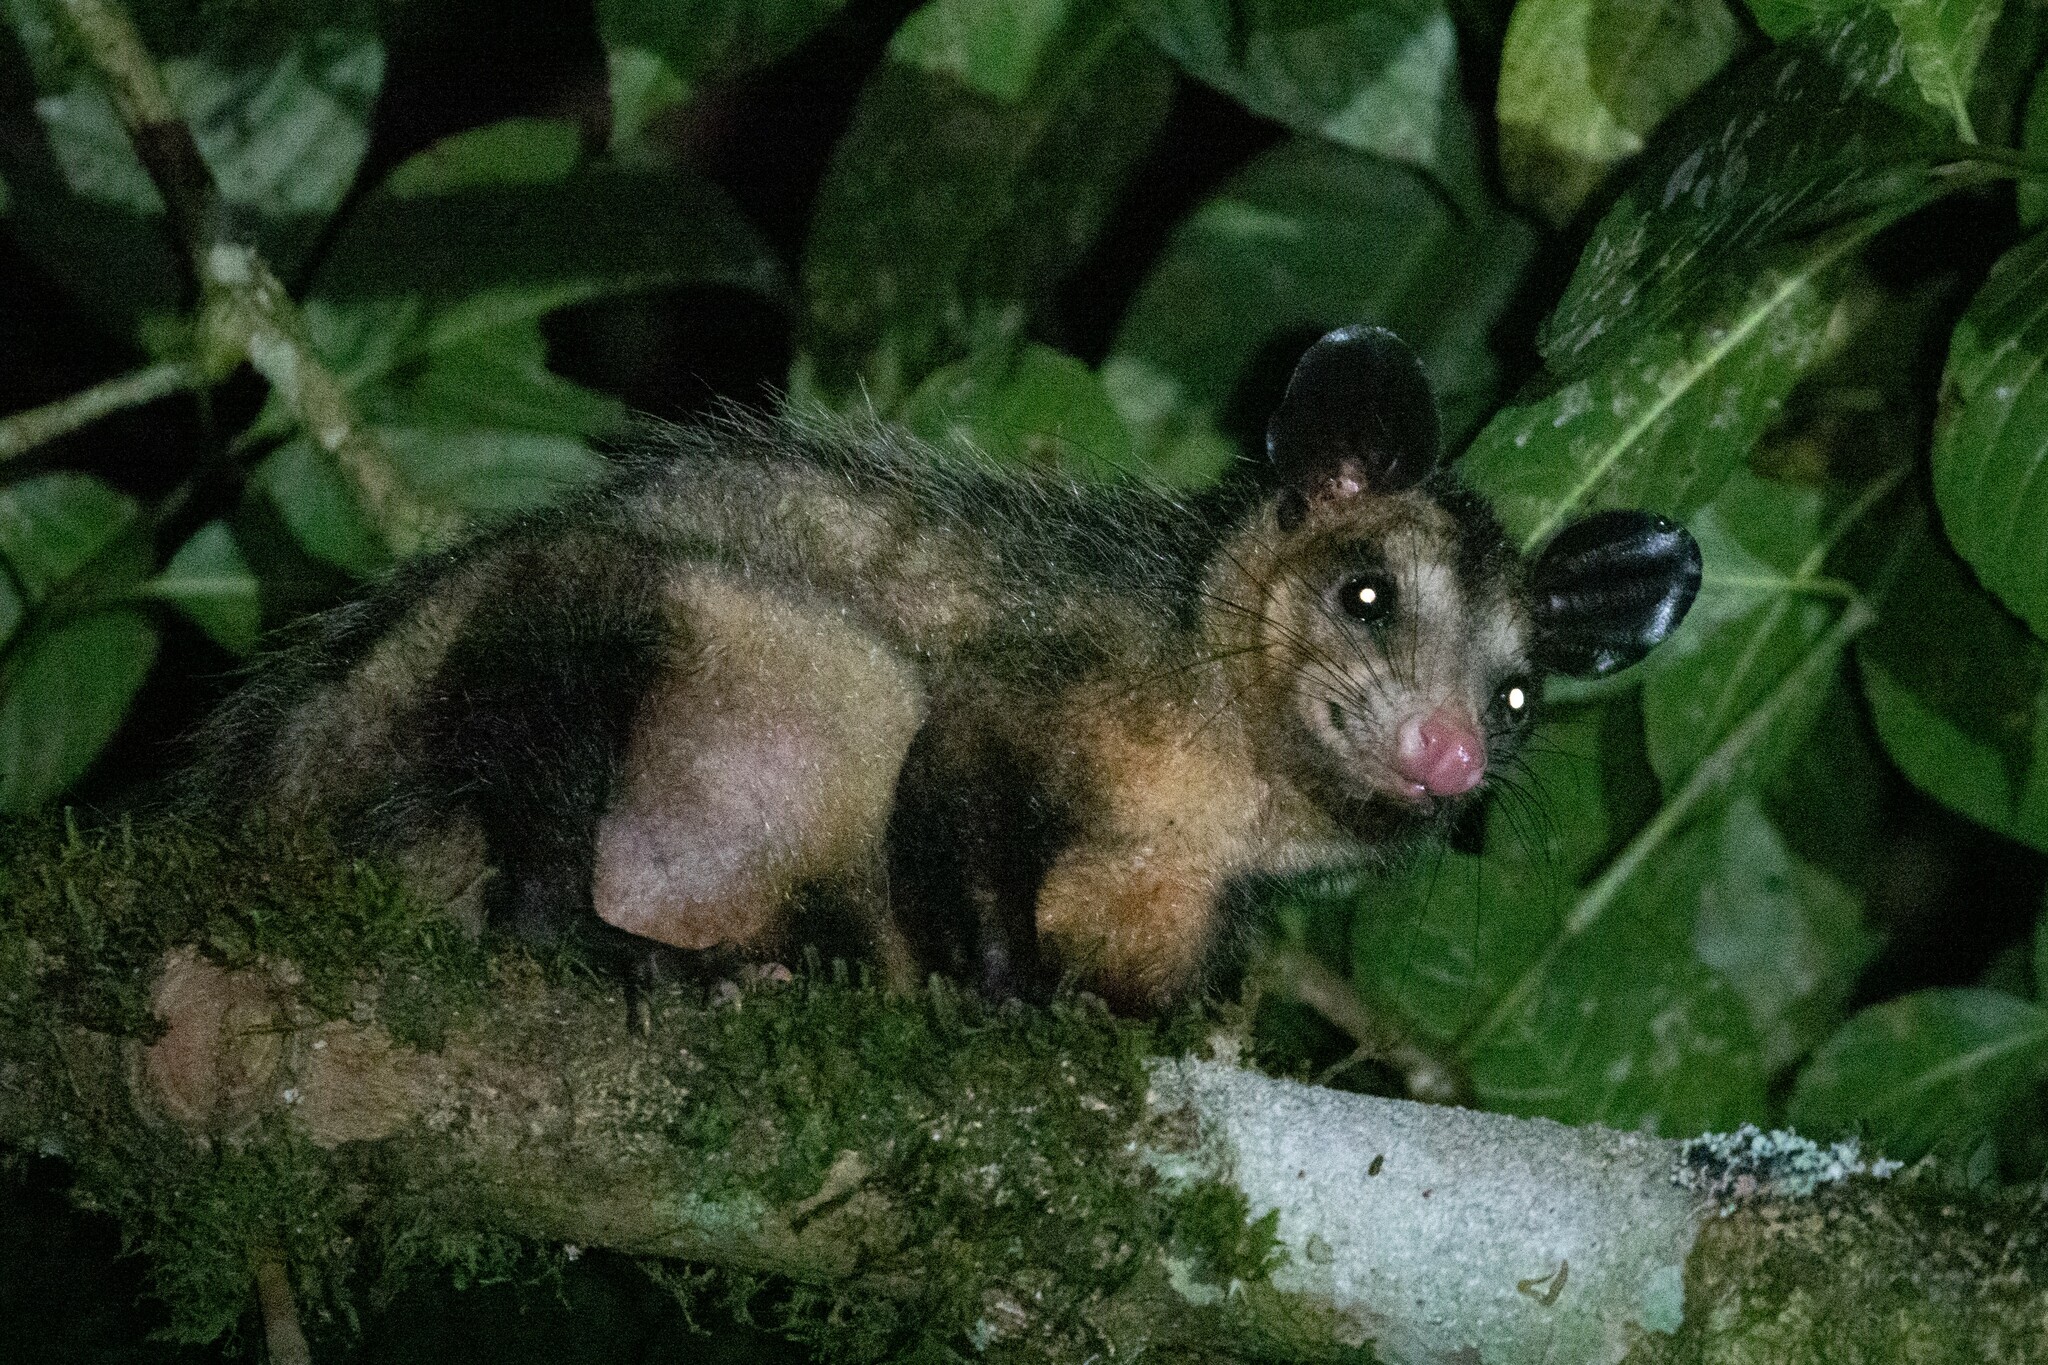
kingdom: Animalia
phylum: Chordata
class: Mammalia
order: Didelphimorphia
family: Didelphidae
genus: Didelphis
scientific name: Didelphis marsupialis
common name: Common opossum
